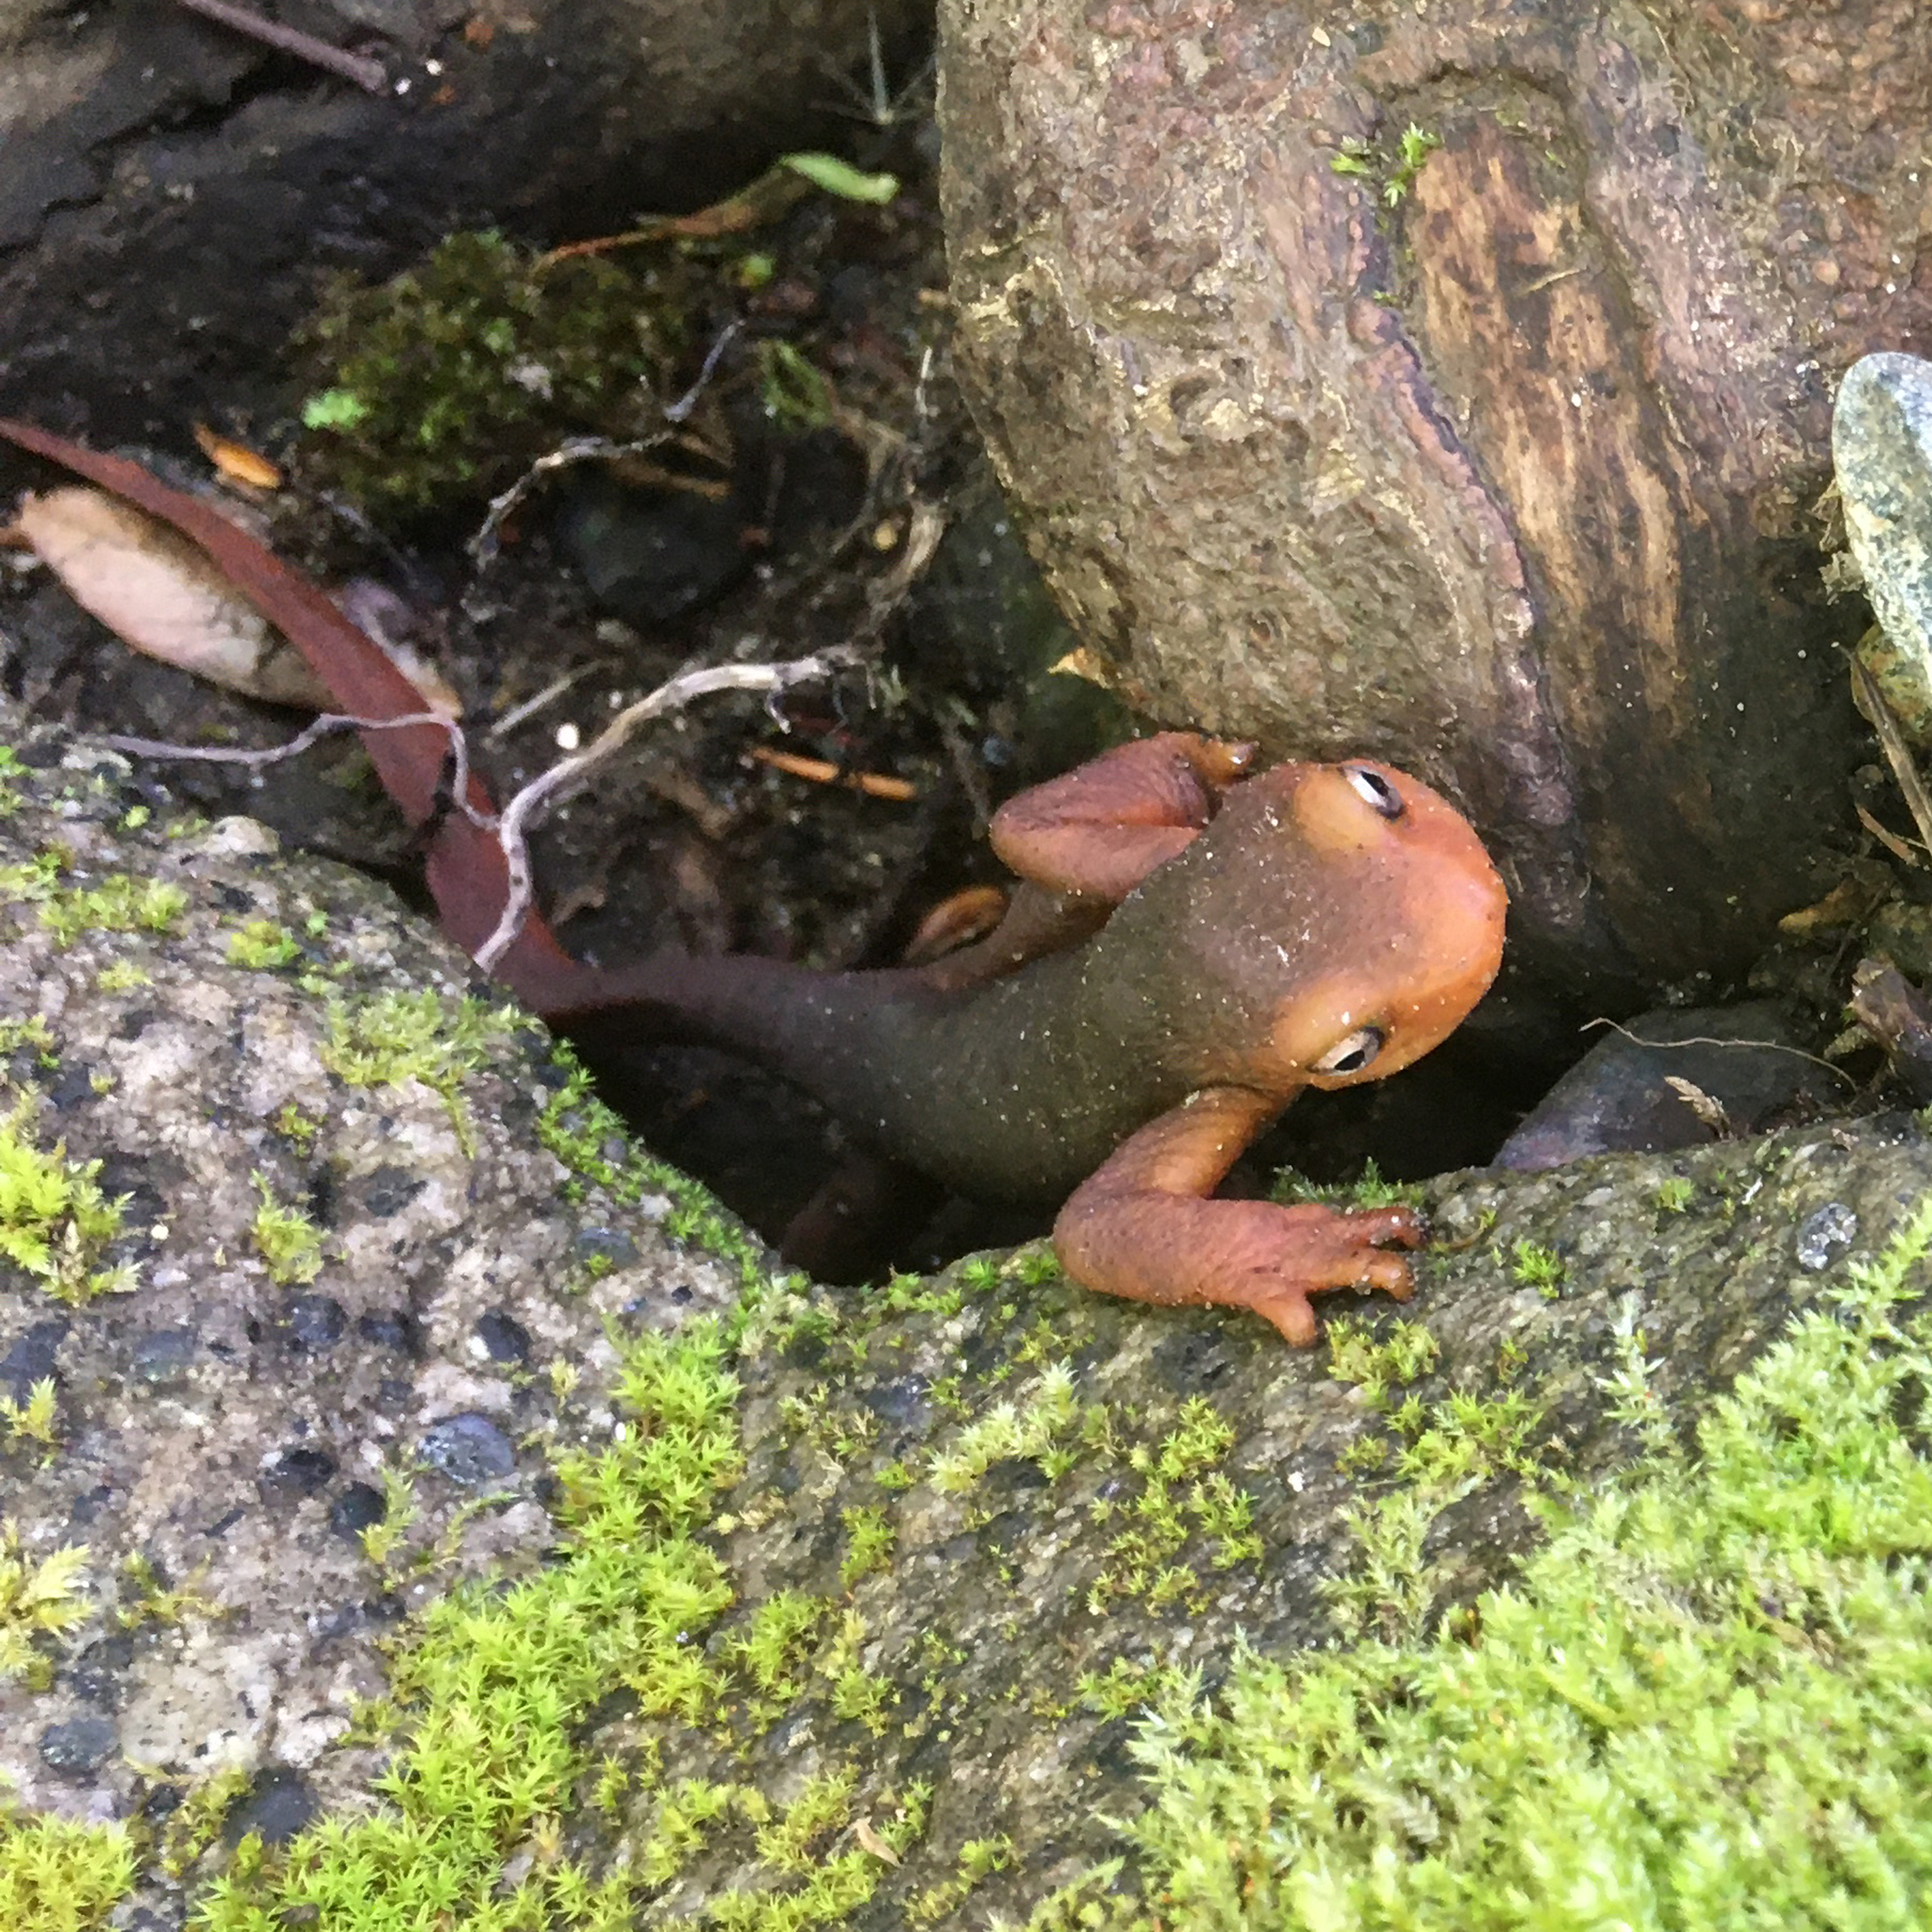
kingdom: Animalia
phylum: Chordata
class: Amphibia
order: Caudata
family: Salamandridae
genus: Taricha
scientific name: Taricha sierrae
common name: Sierra newt
